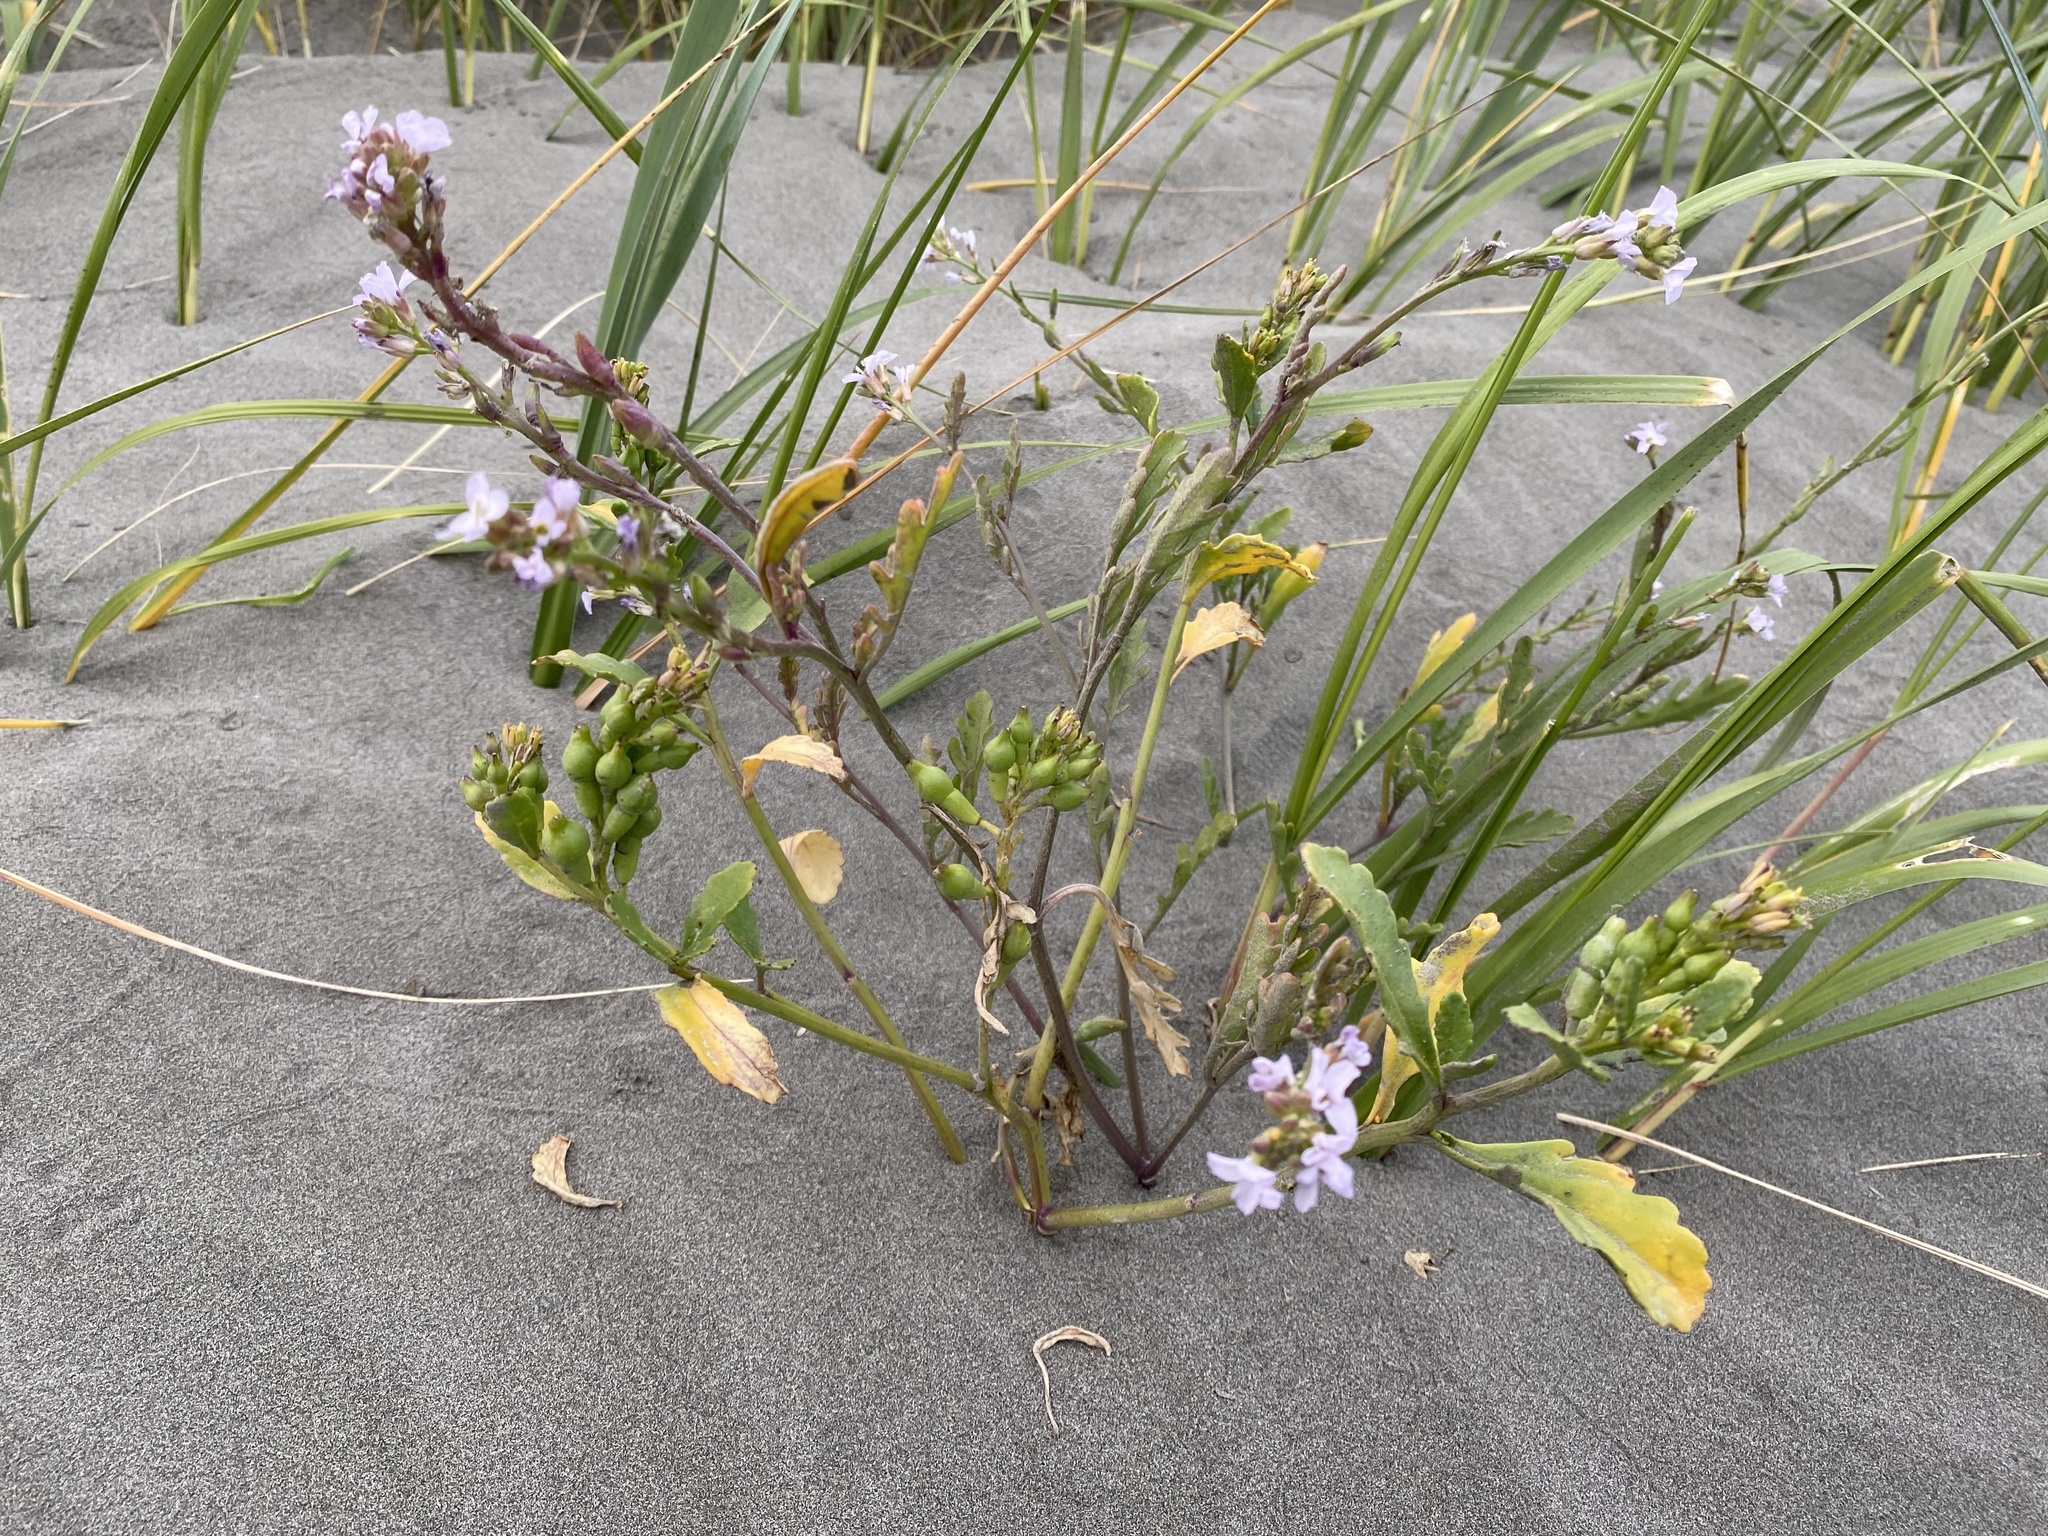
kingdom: Plantae
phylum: Tracheophyta
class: Magnoliopsida
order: Brassicales
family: Brassicaceae
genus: Cakile
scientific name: Cakile edentula
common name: American sea rocket
